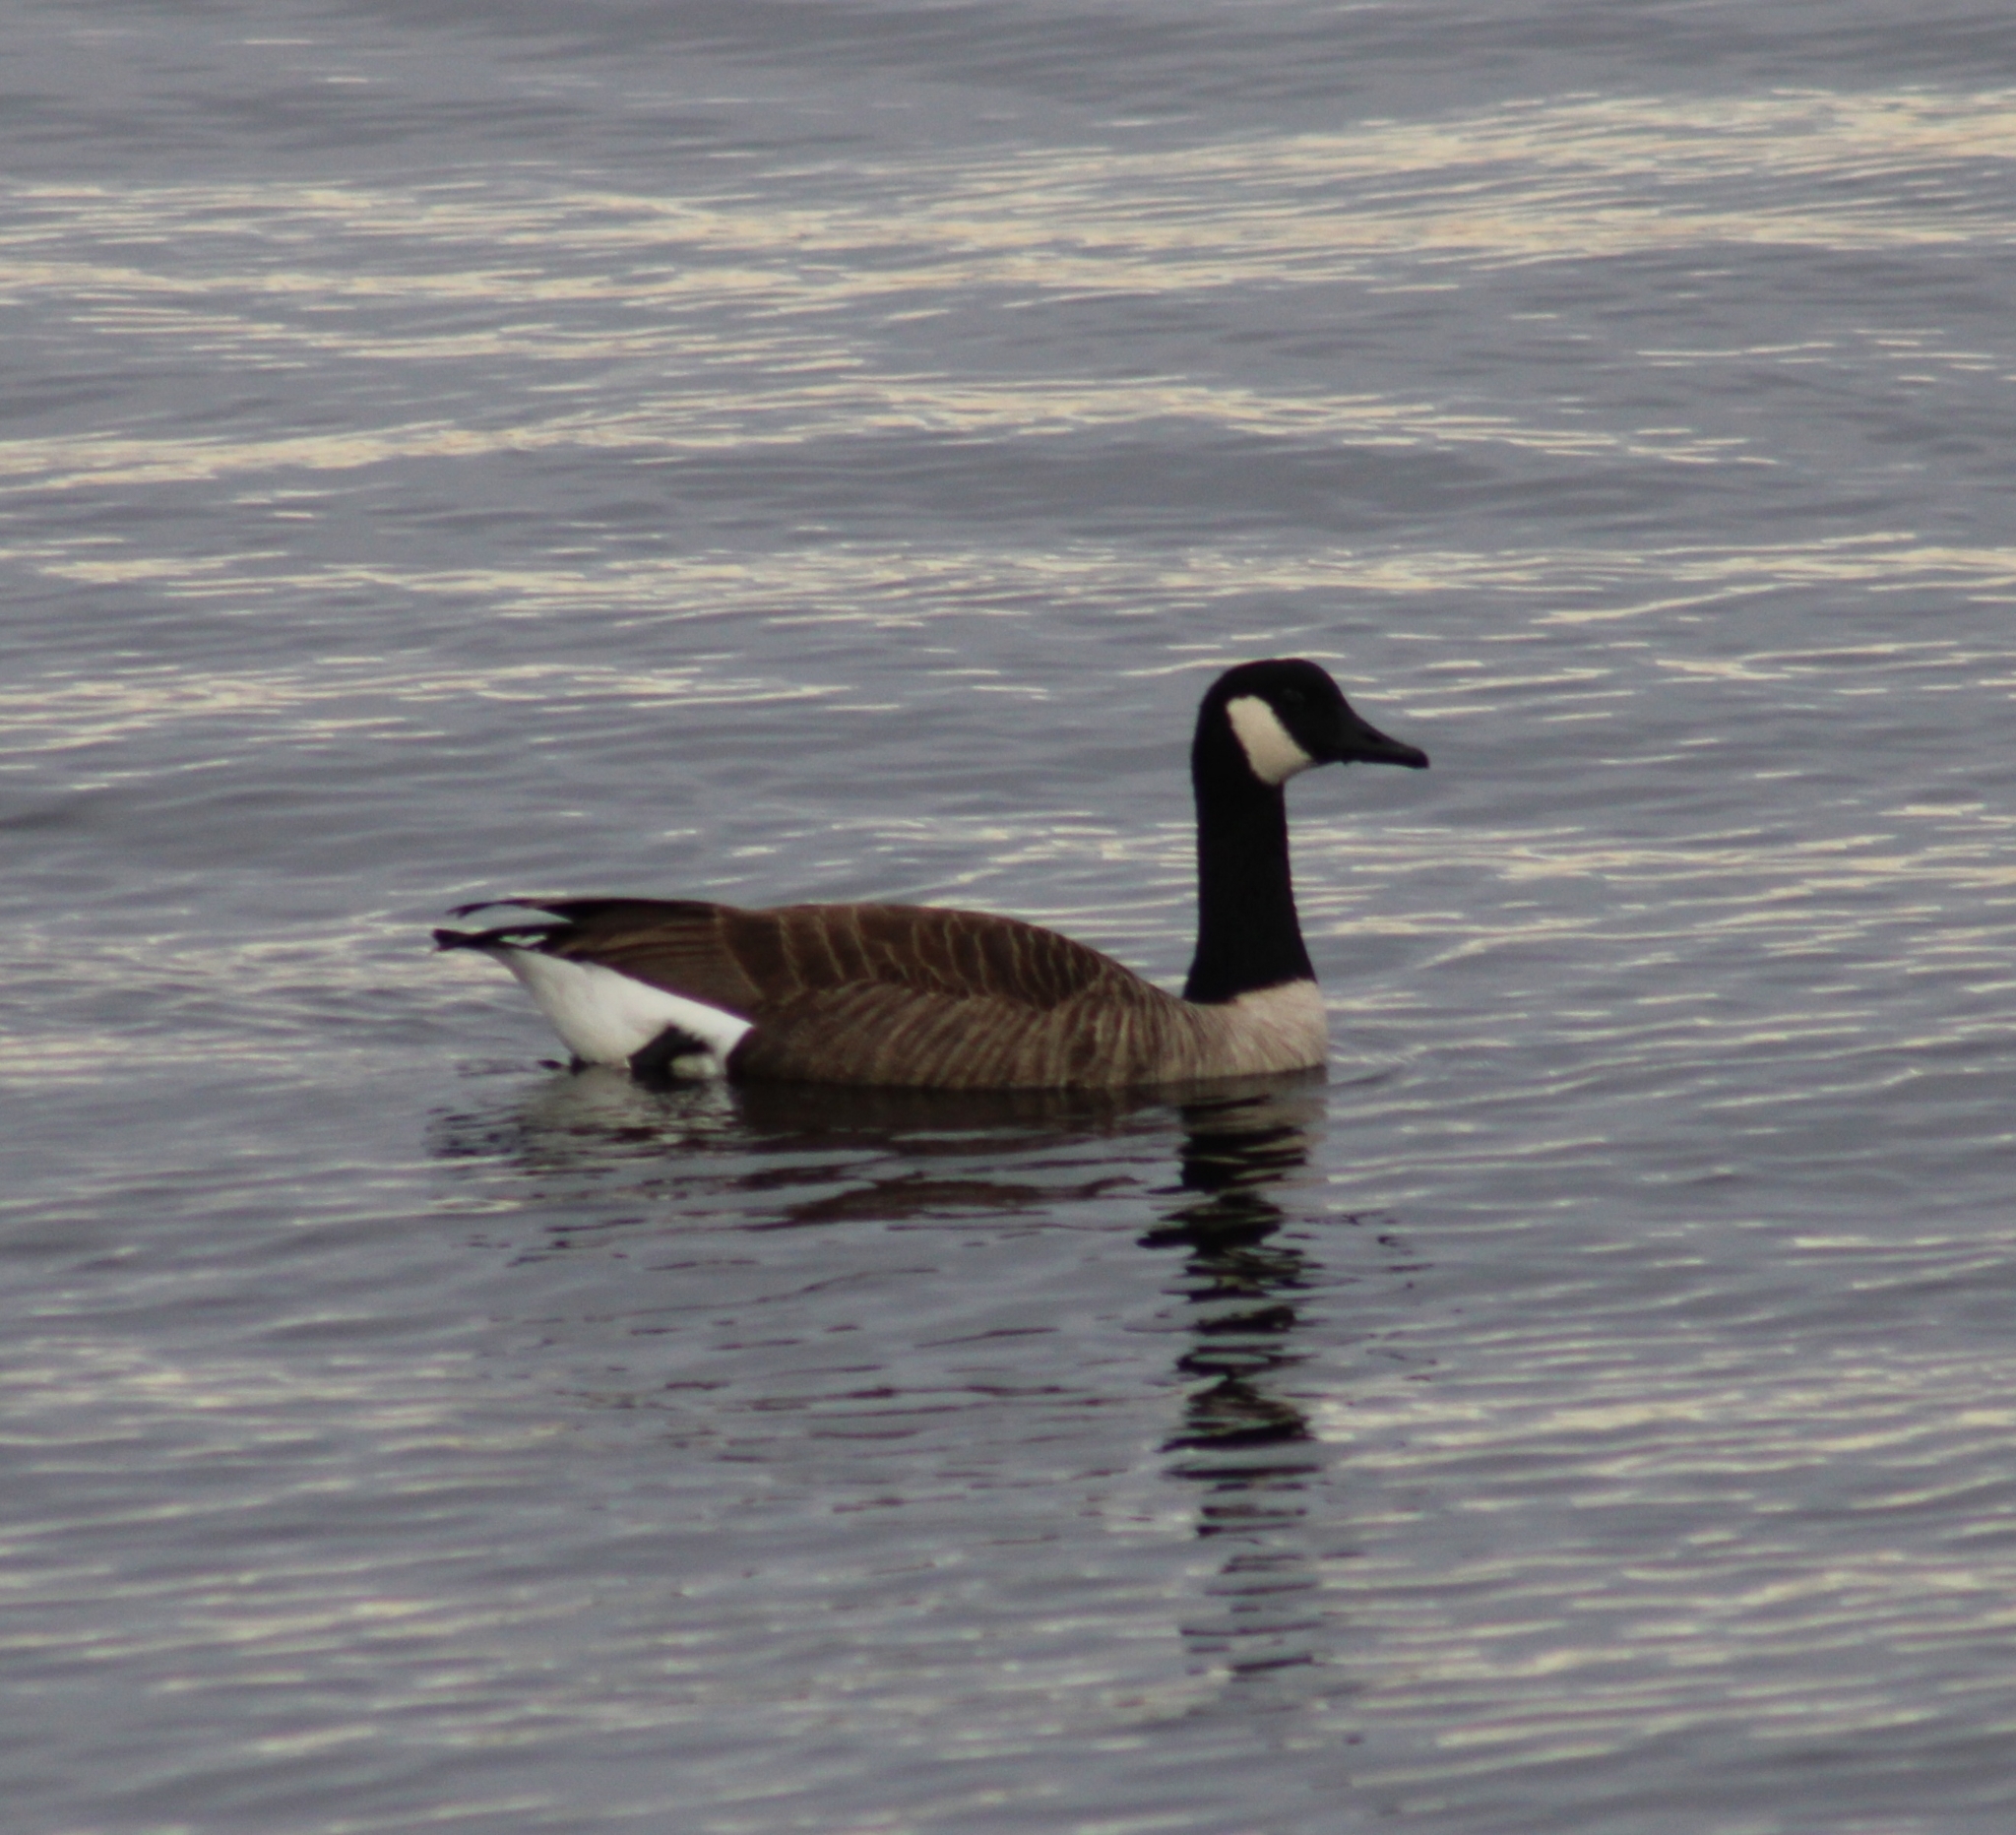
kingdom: Animalia
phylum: Chordata
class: Aves
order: Anseriformes
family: Anatidae
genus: Branta
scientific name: Branta canadensis
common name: Canada goose
